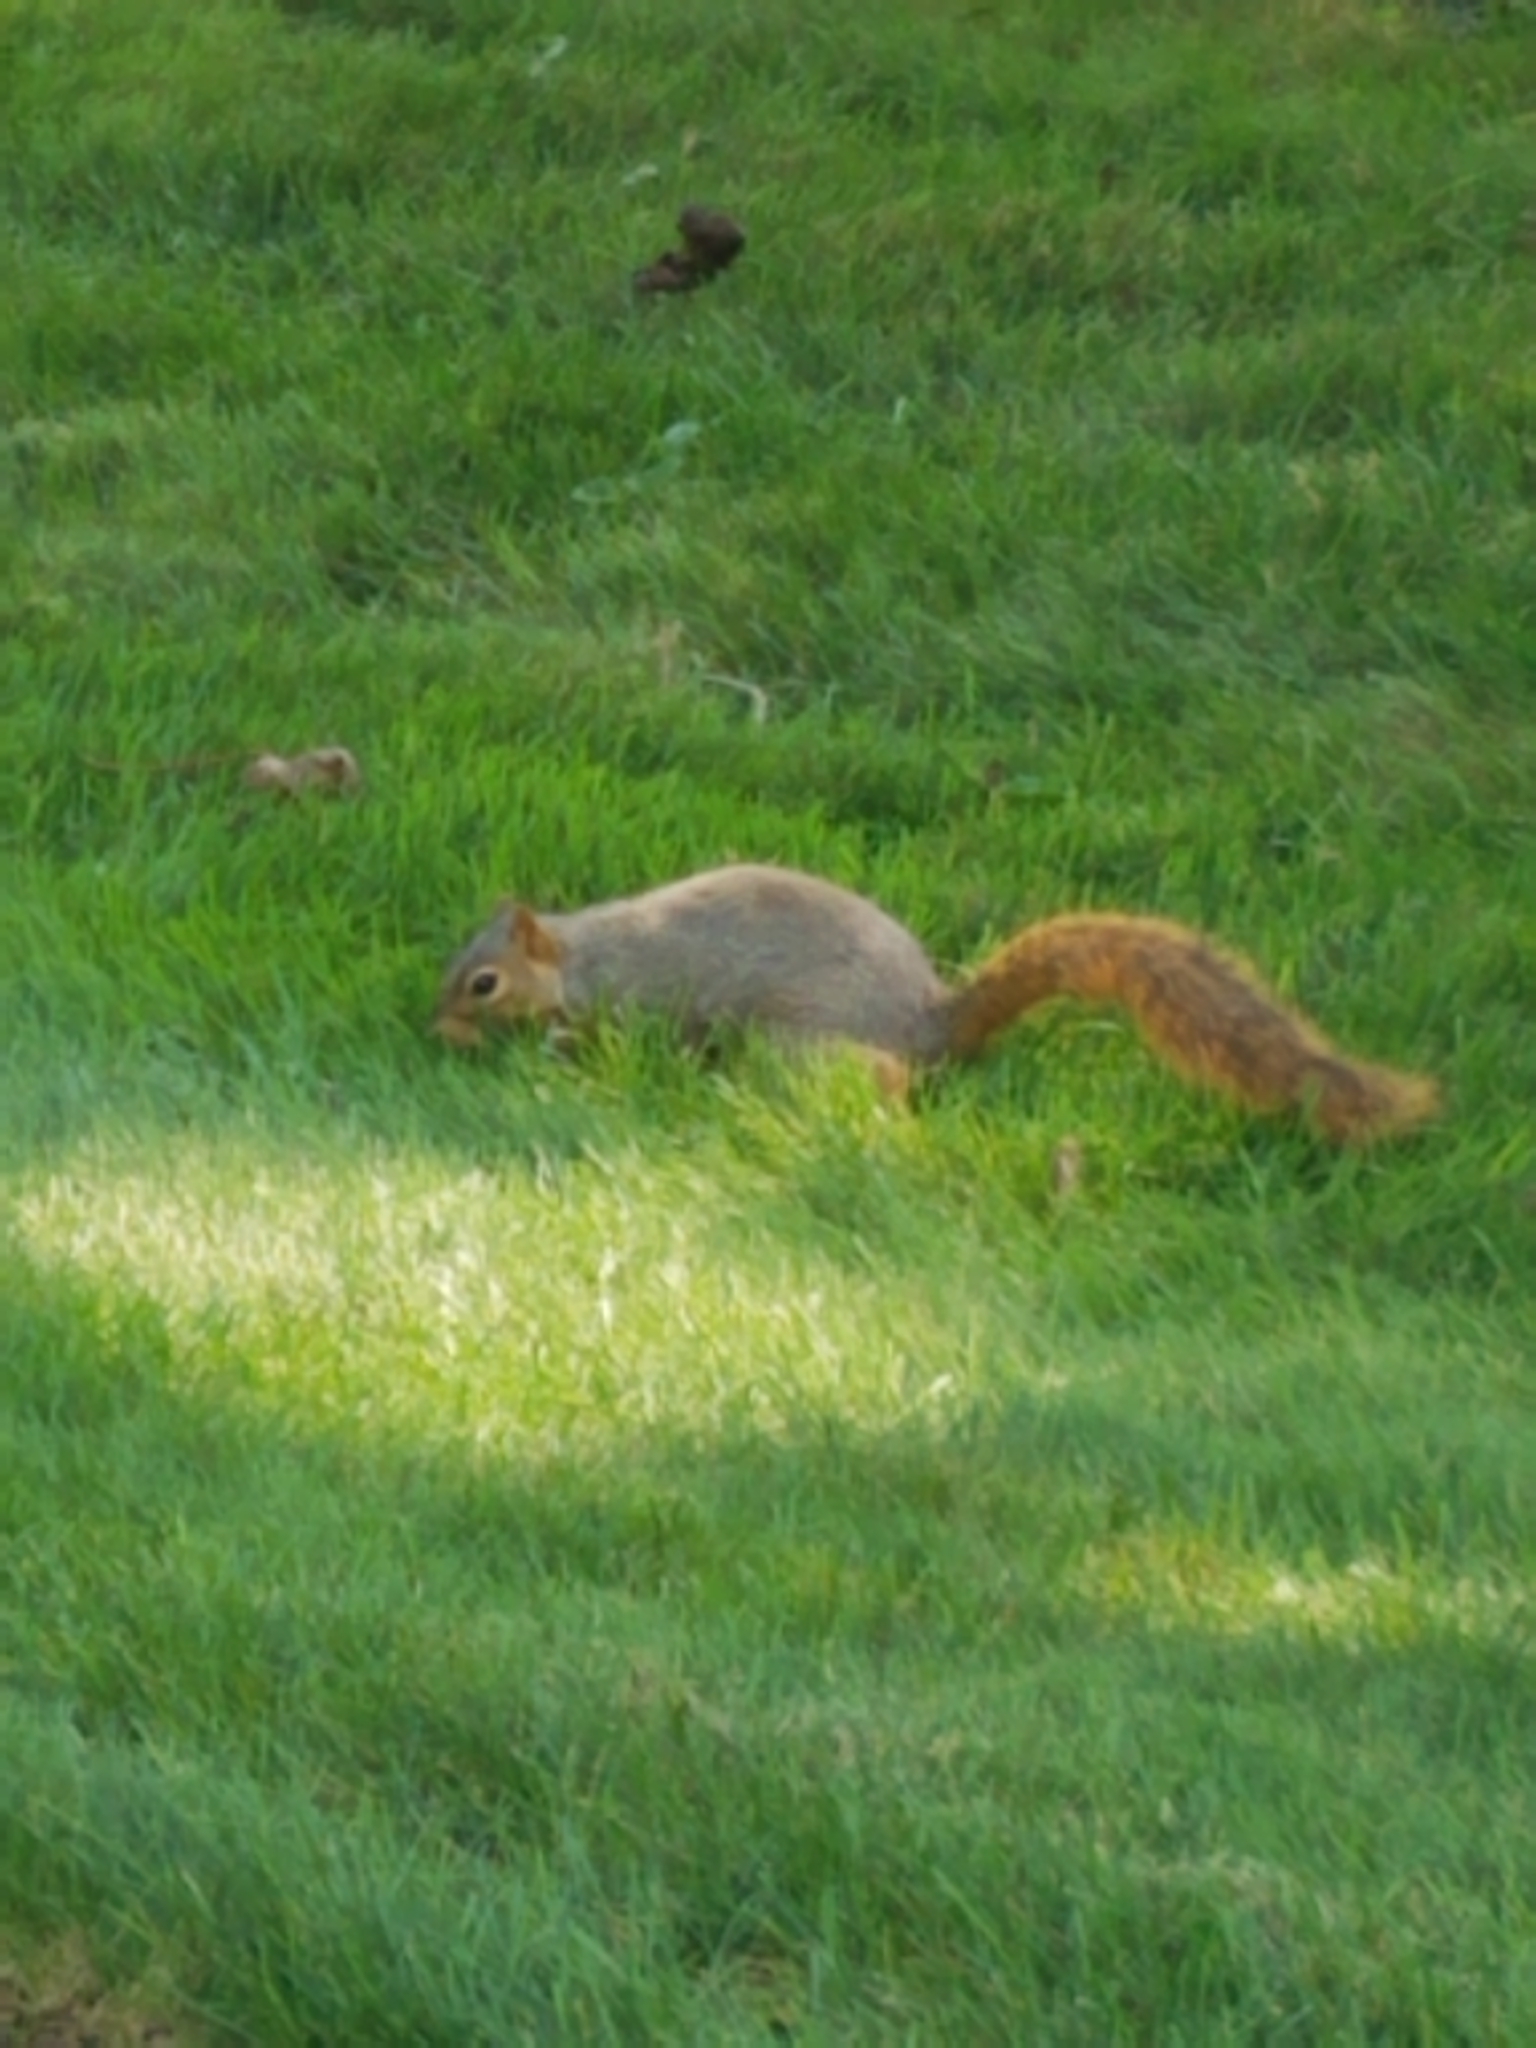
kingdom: Animalia
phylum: Chordata
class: Mammalia
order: Rodentia
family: Sciuridae
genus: Sciurus
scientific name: Sciurus niger
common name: Fox squirrel
